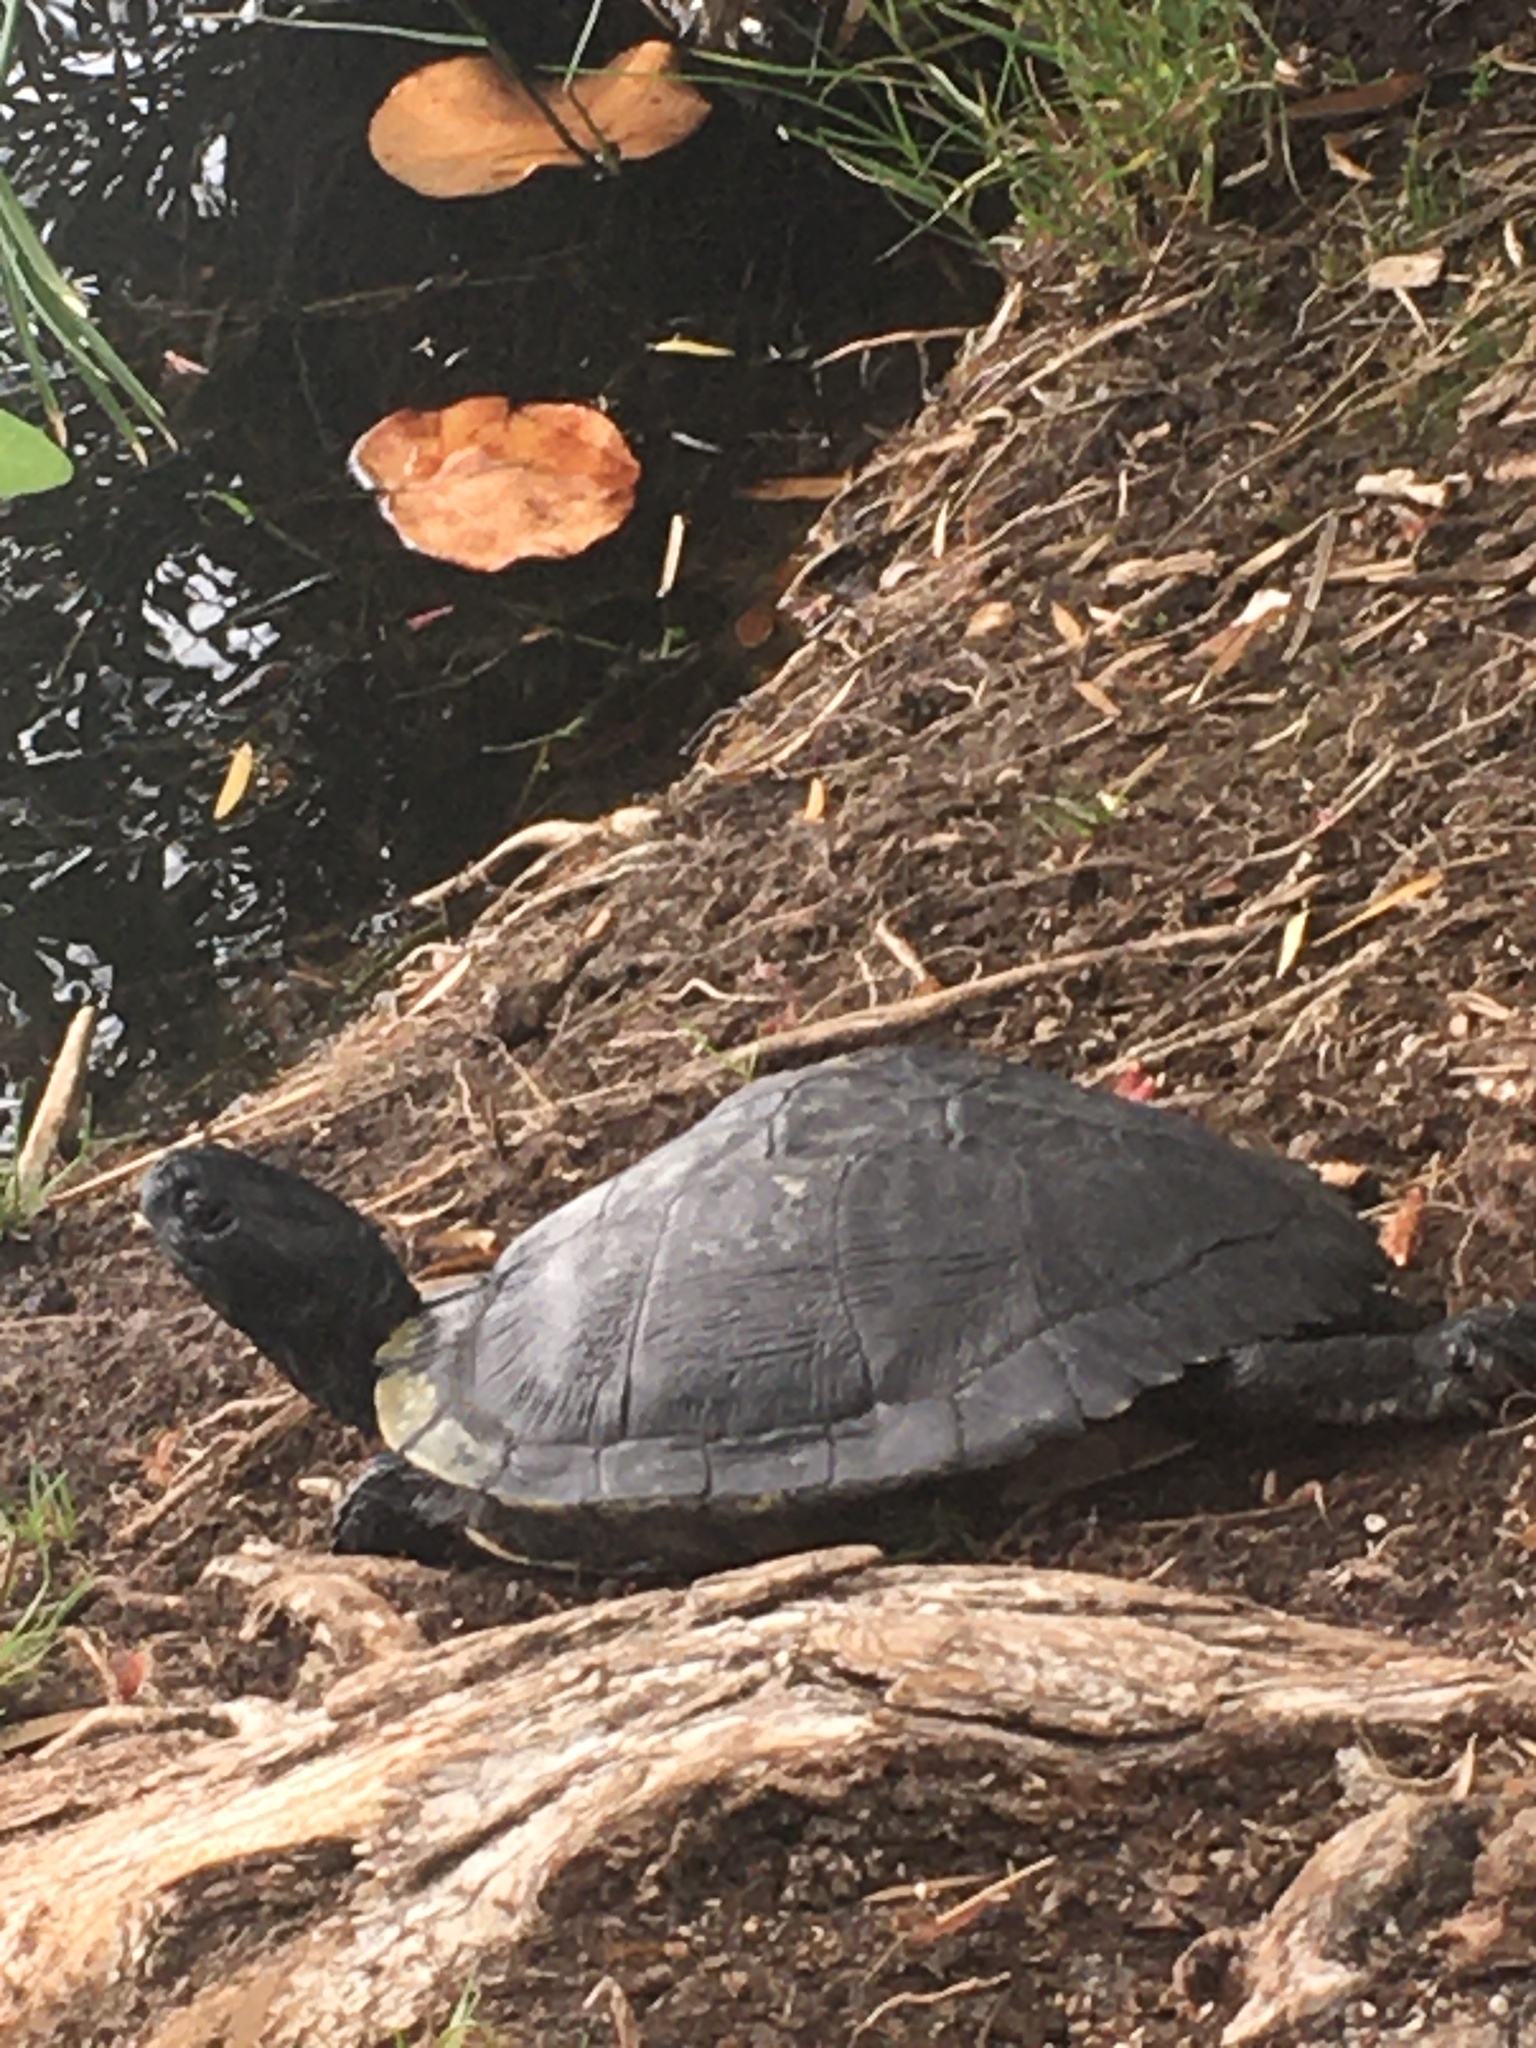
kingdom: Animalia
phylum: Chordata
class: Testudines
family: Emydidae
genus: Trachemys
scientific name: Trachemys scripta
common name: Slider
